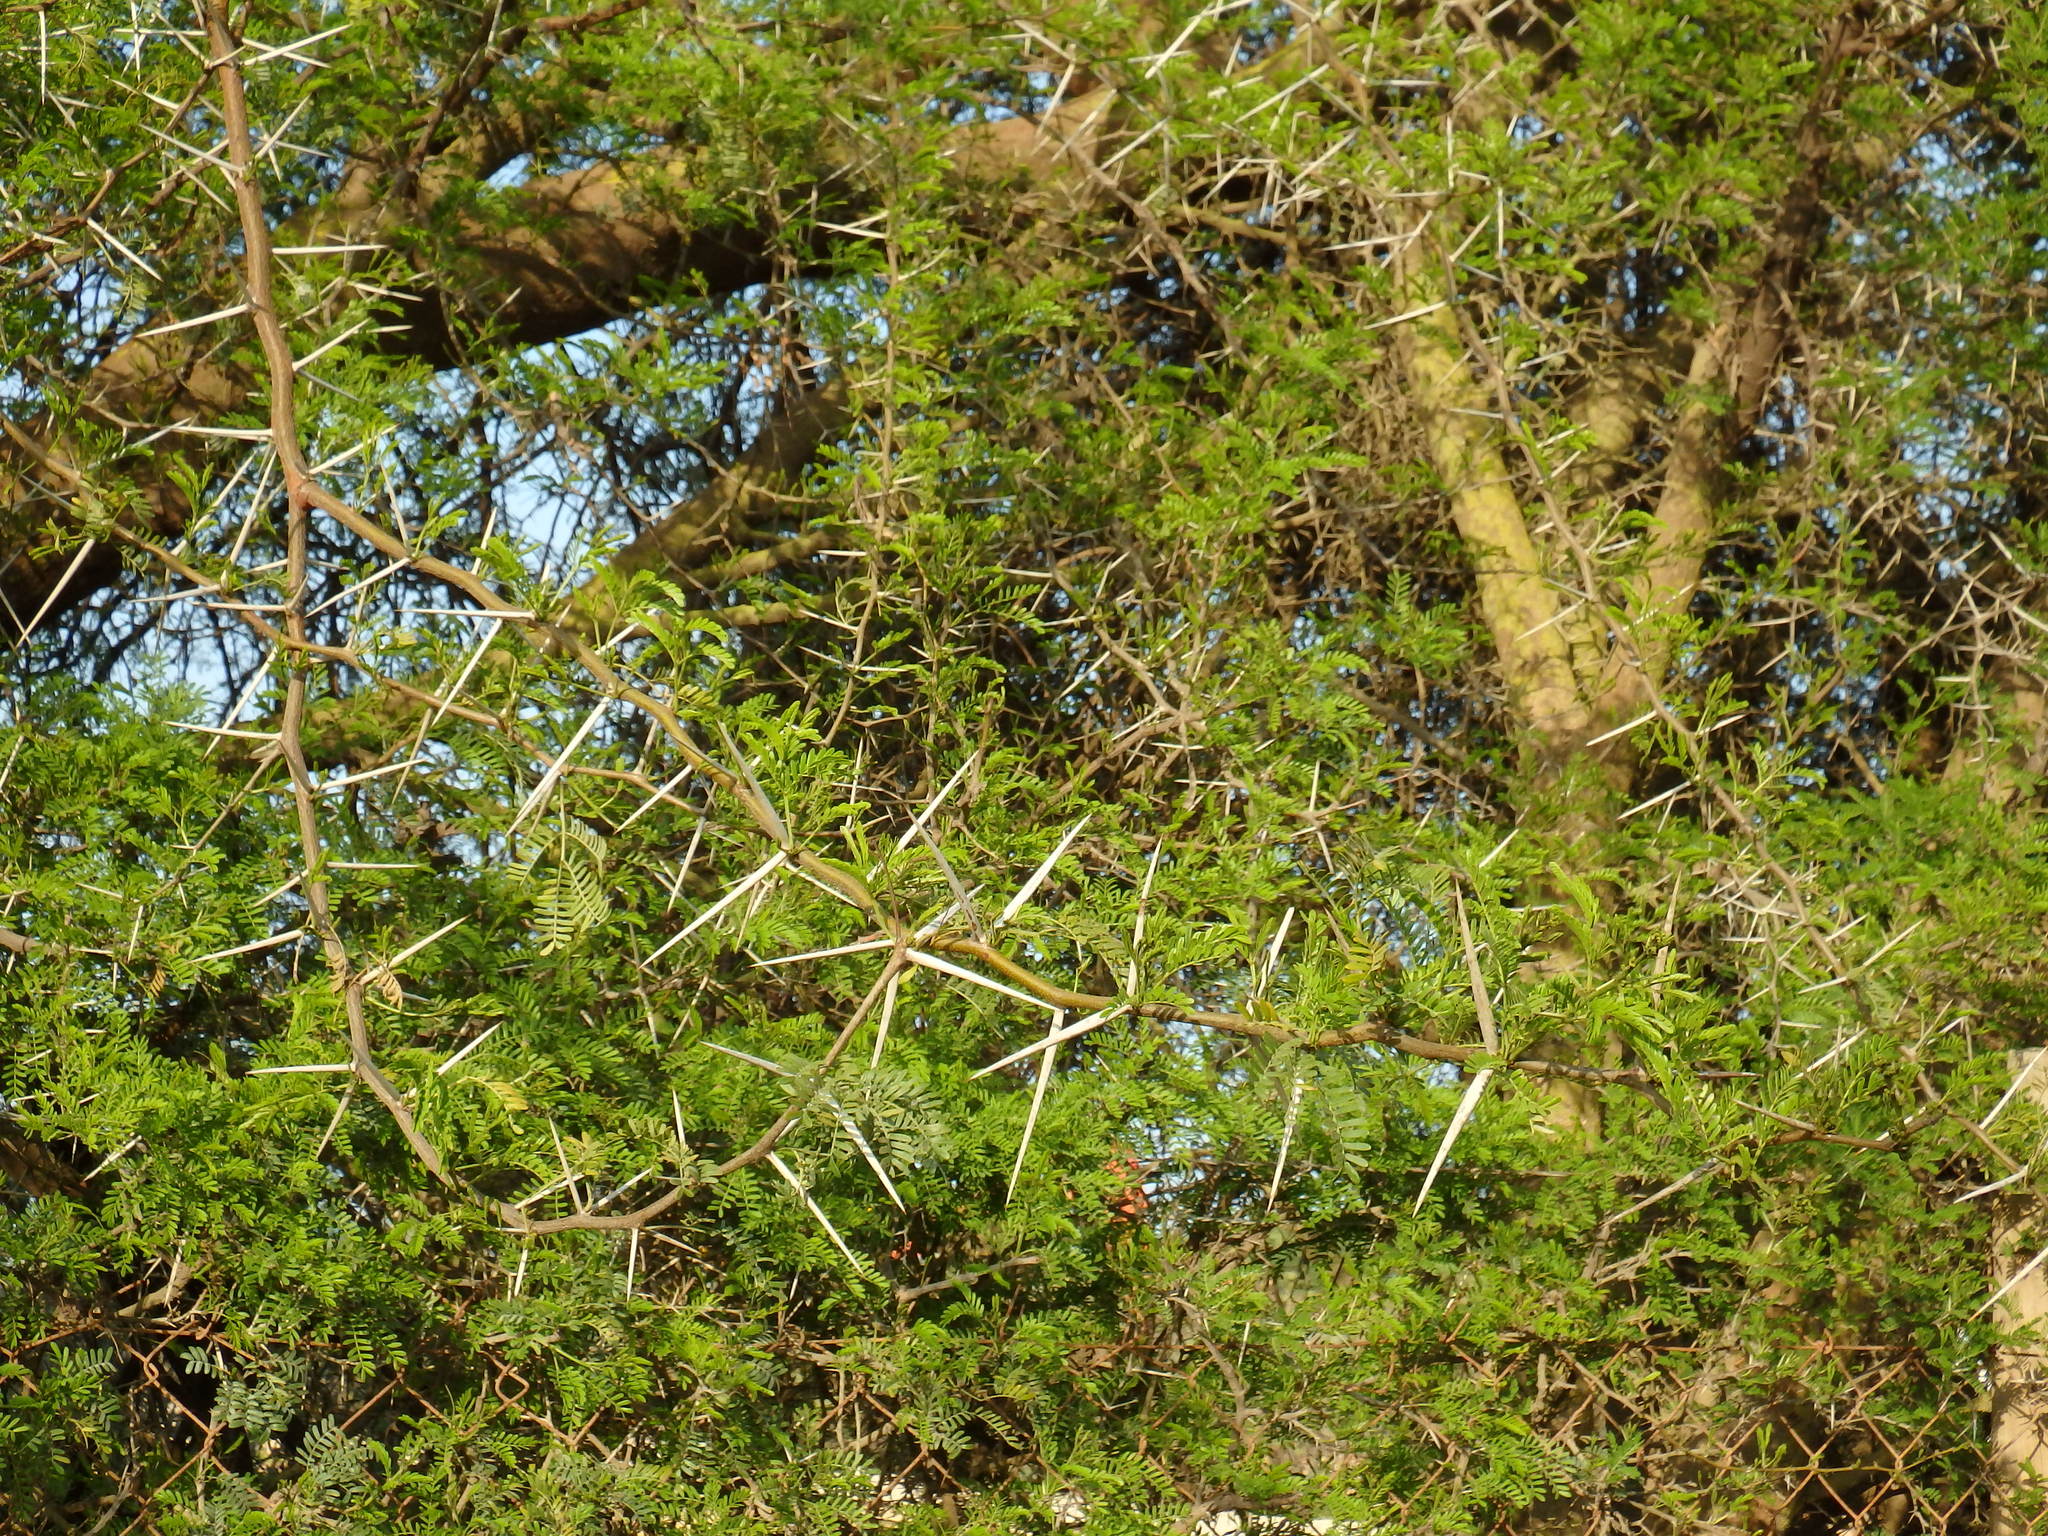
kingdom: Plantae
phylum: Tracheophyta
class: Magnoliopsida
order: Fabales
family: Fabaceae
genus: Vachellia
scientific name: Vachellia karroo
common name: Sweet thorn
